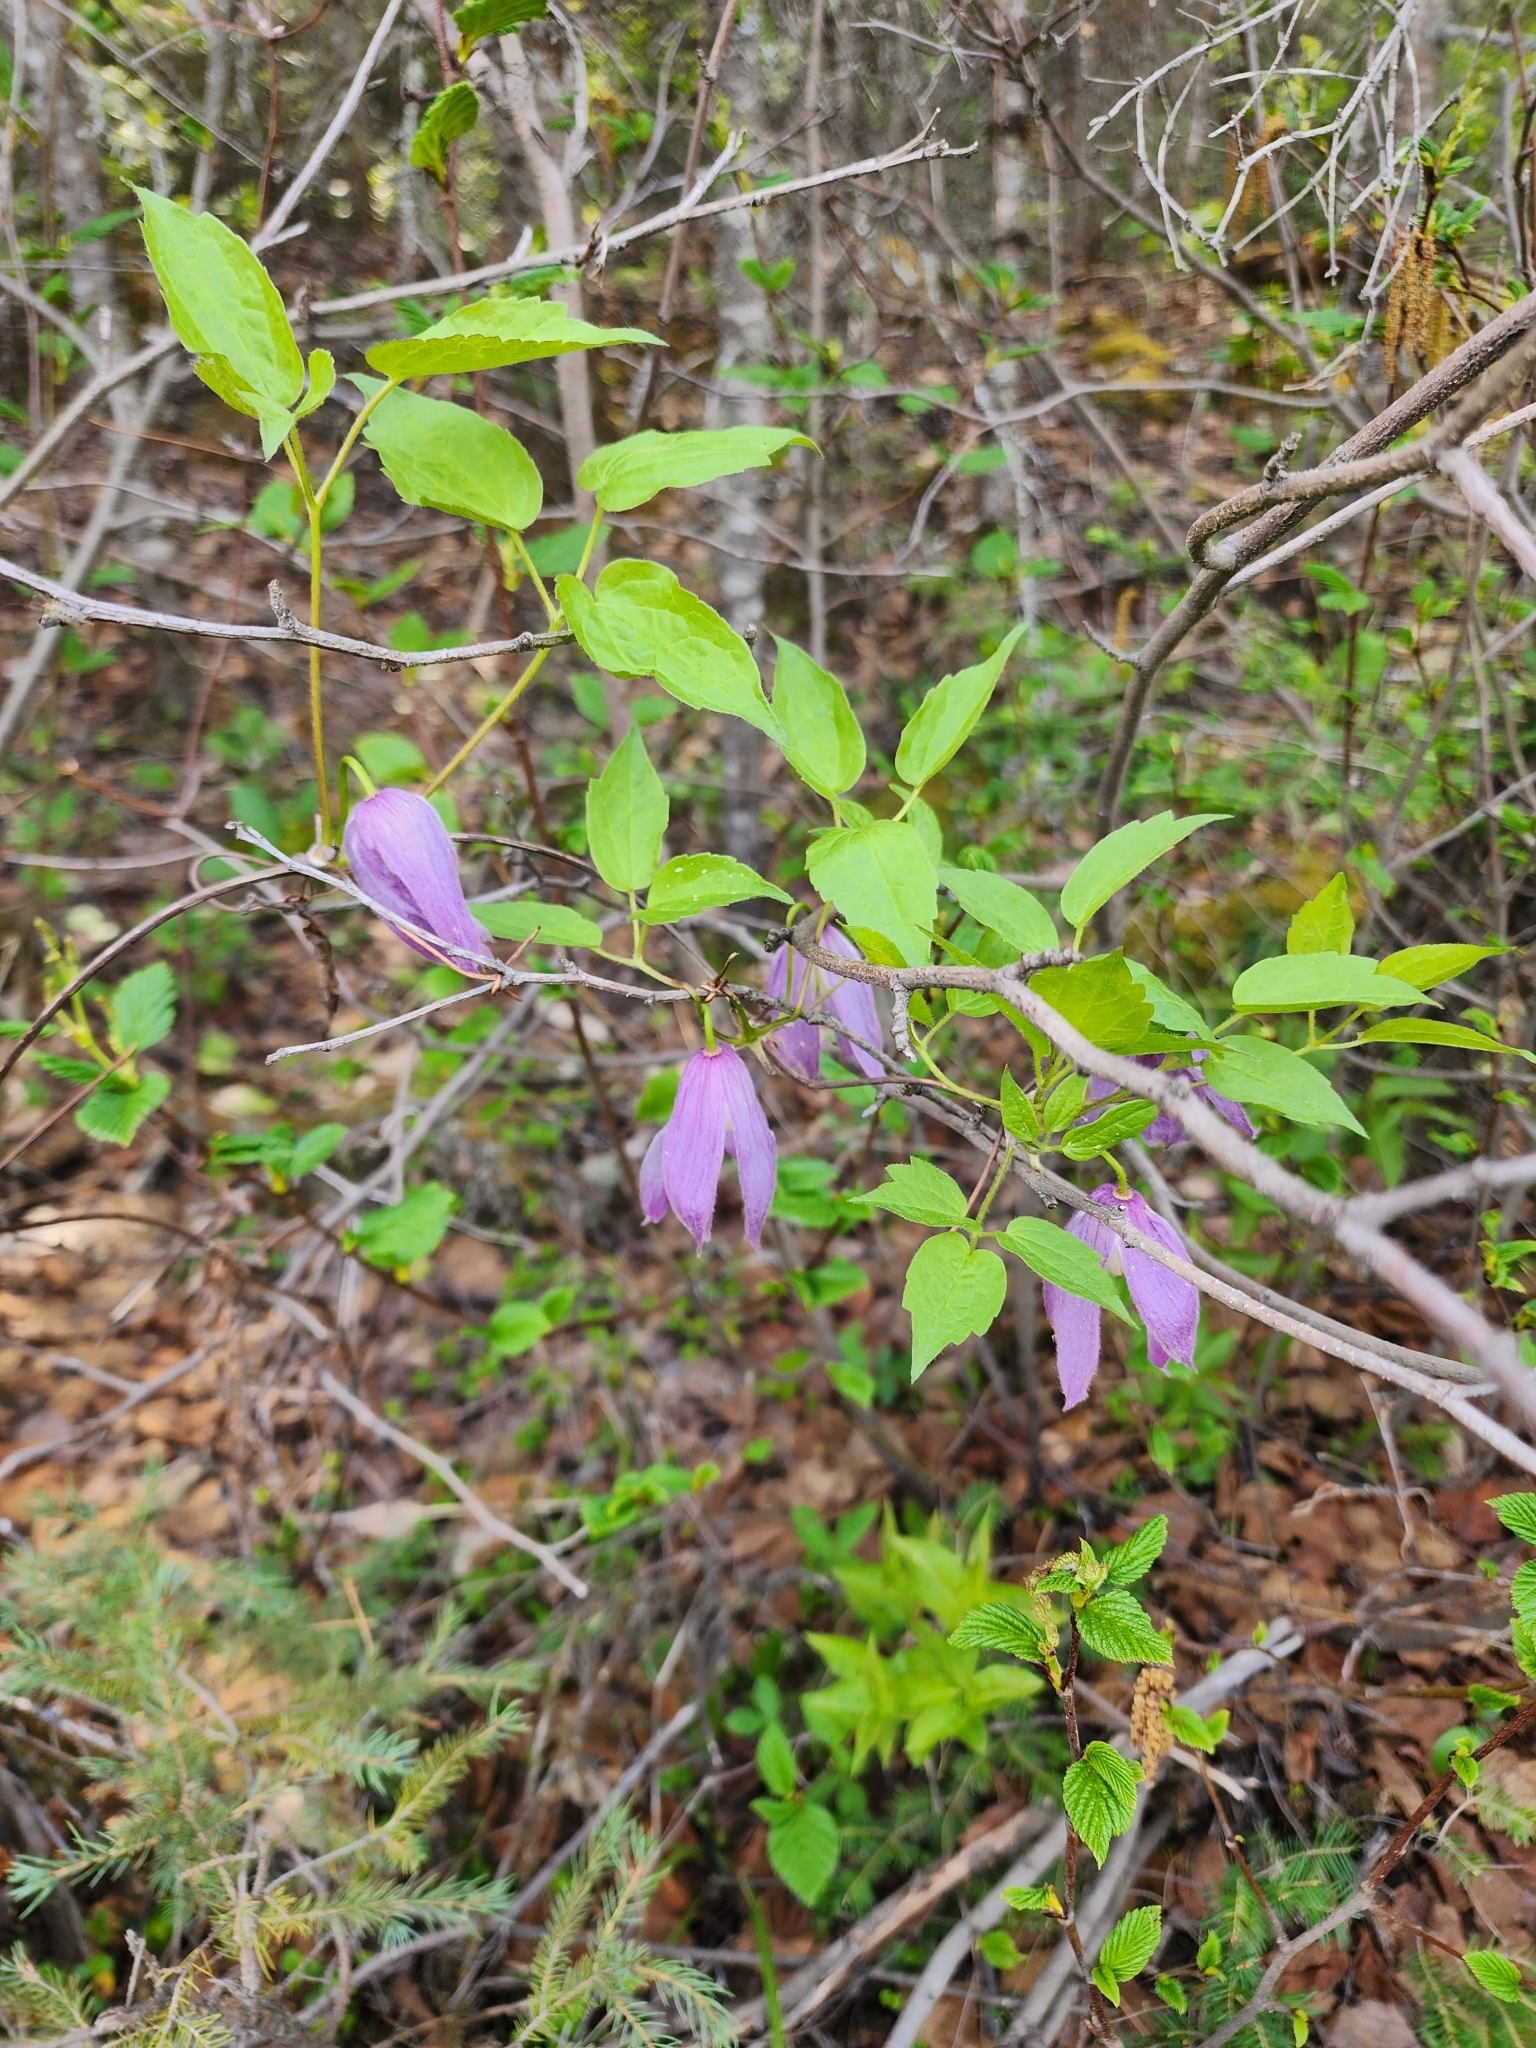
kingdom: Plantae
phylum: Tracheophyta
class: Magnoliopsida
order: Ranunculales
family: Ranunculaceae
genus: Clematis
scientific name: Clematis occidentalis
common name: Purple clematis
